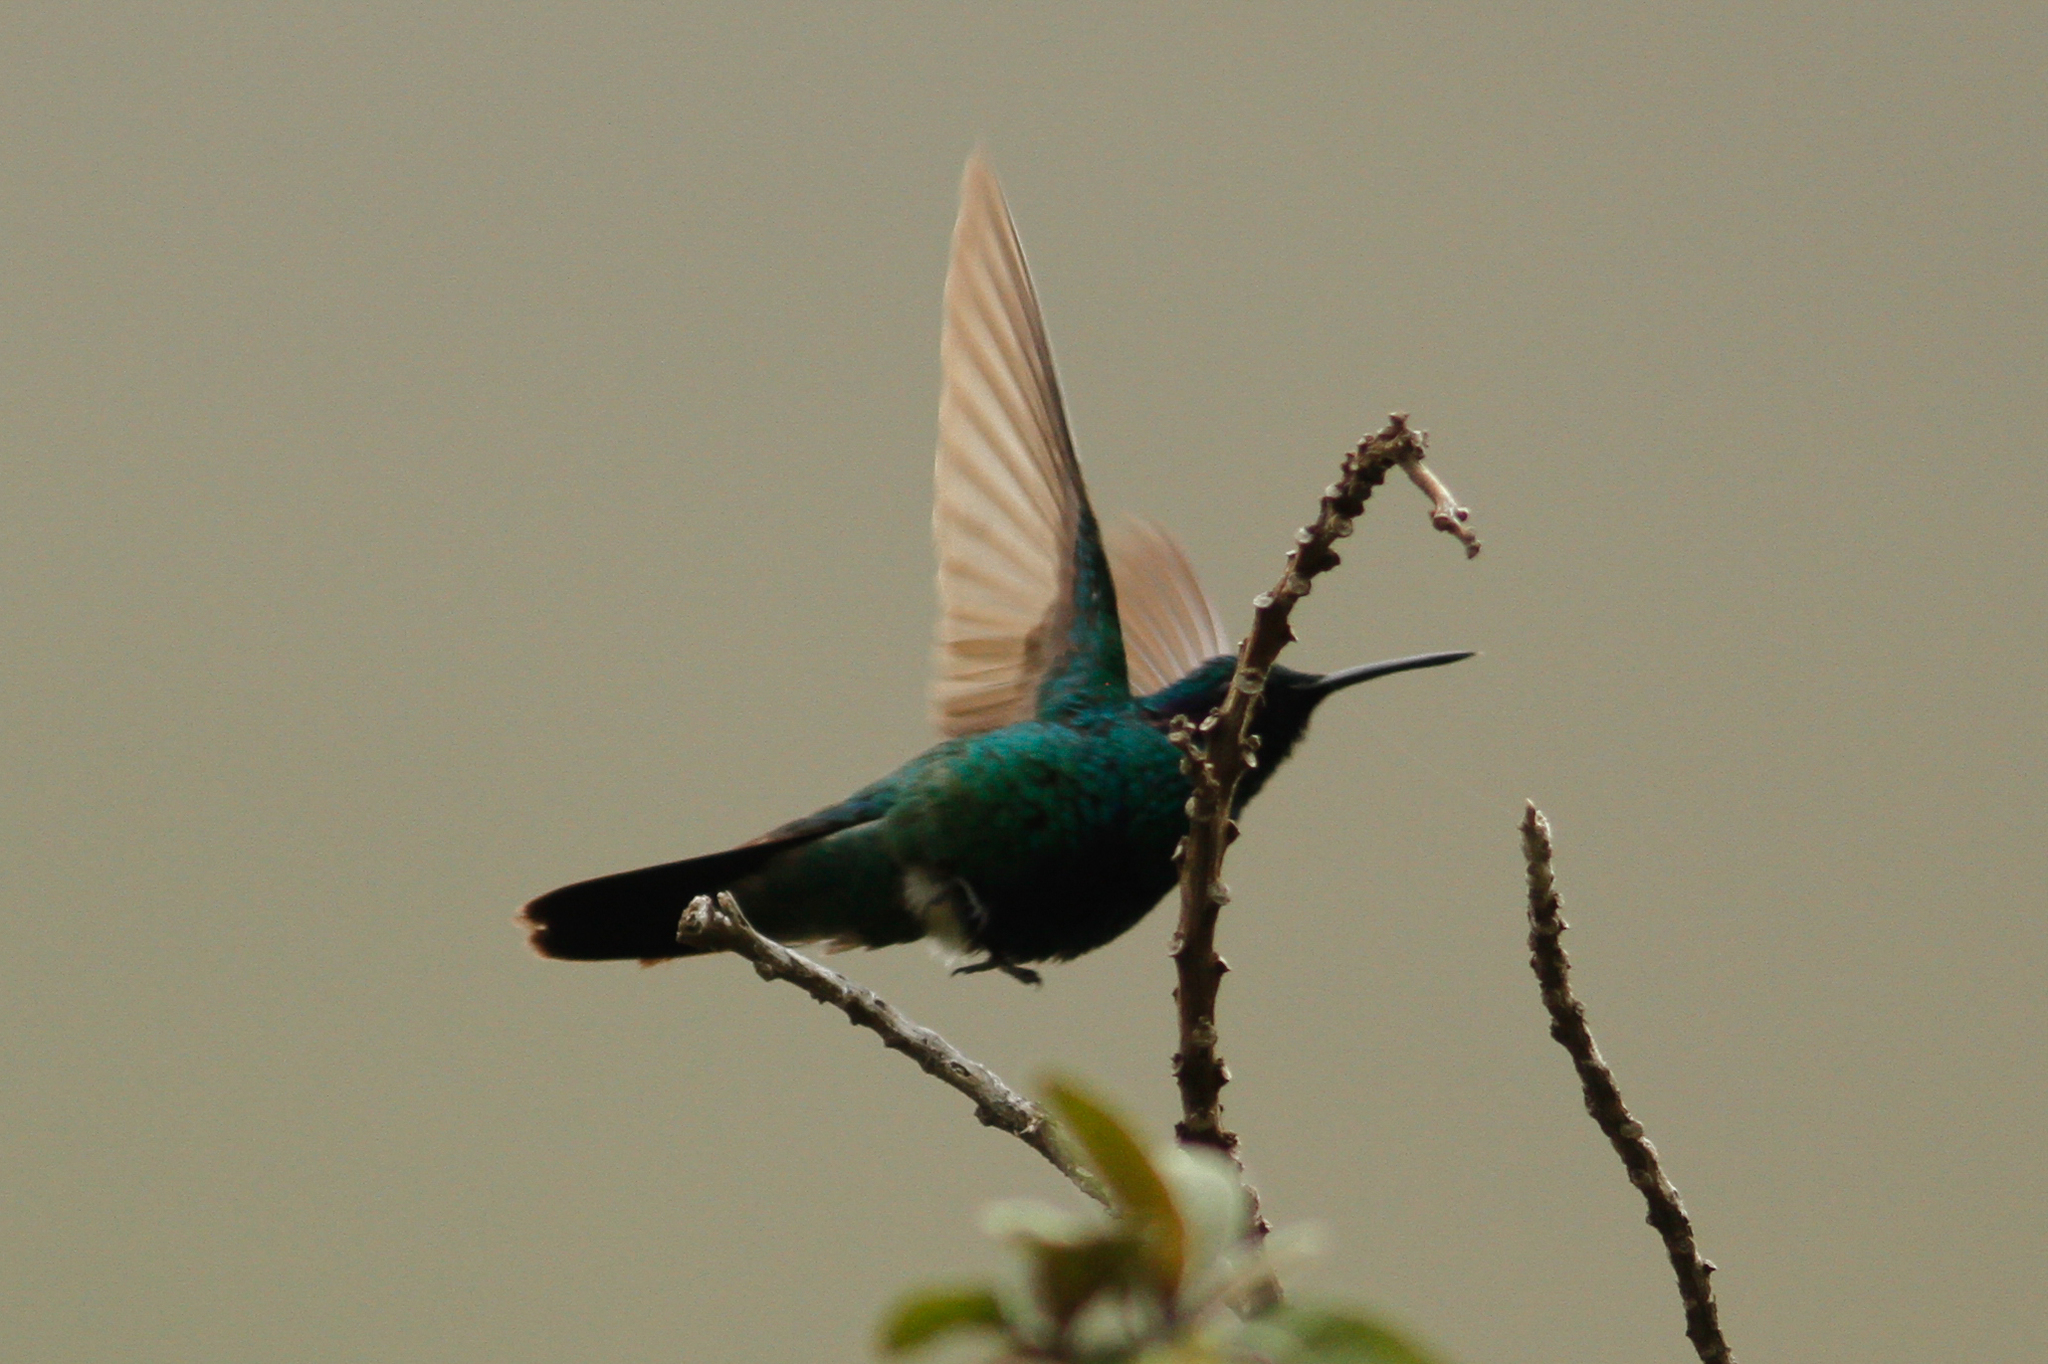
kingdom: Animalia
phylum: Chordata
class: Aves
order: Apodiformes
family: Trochilidae
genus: Colibri
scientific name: Colibri coruscans
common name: Sparkling violetear
